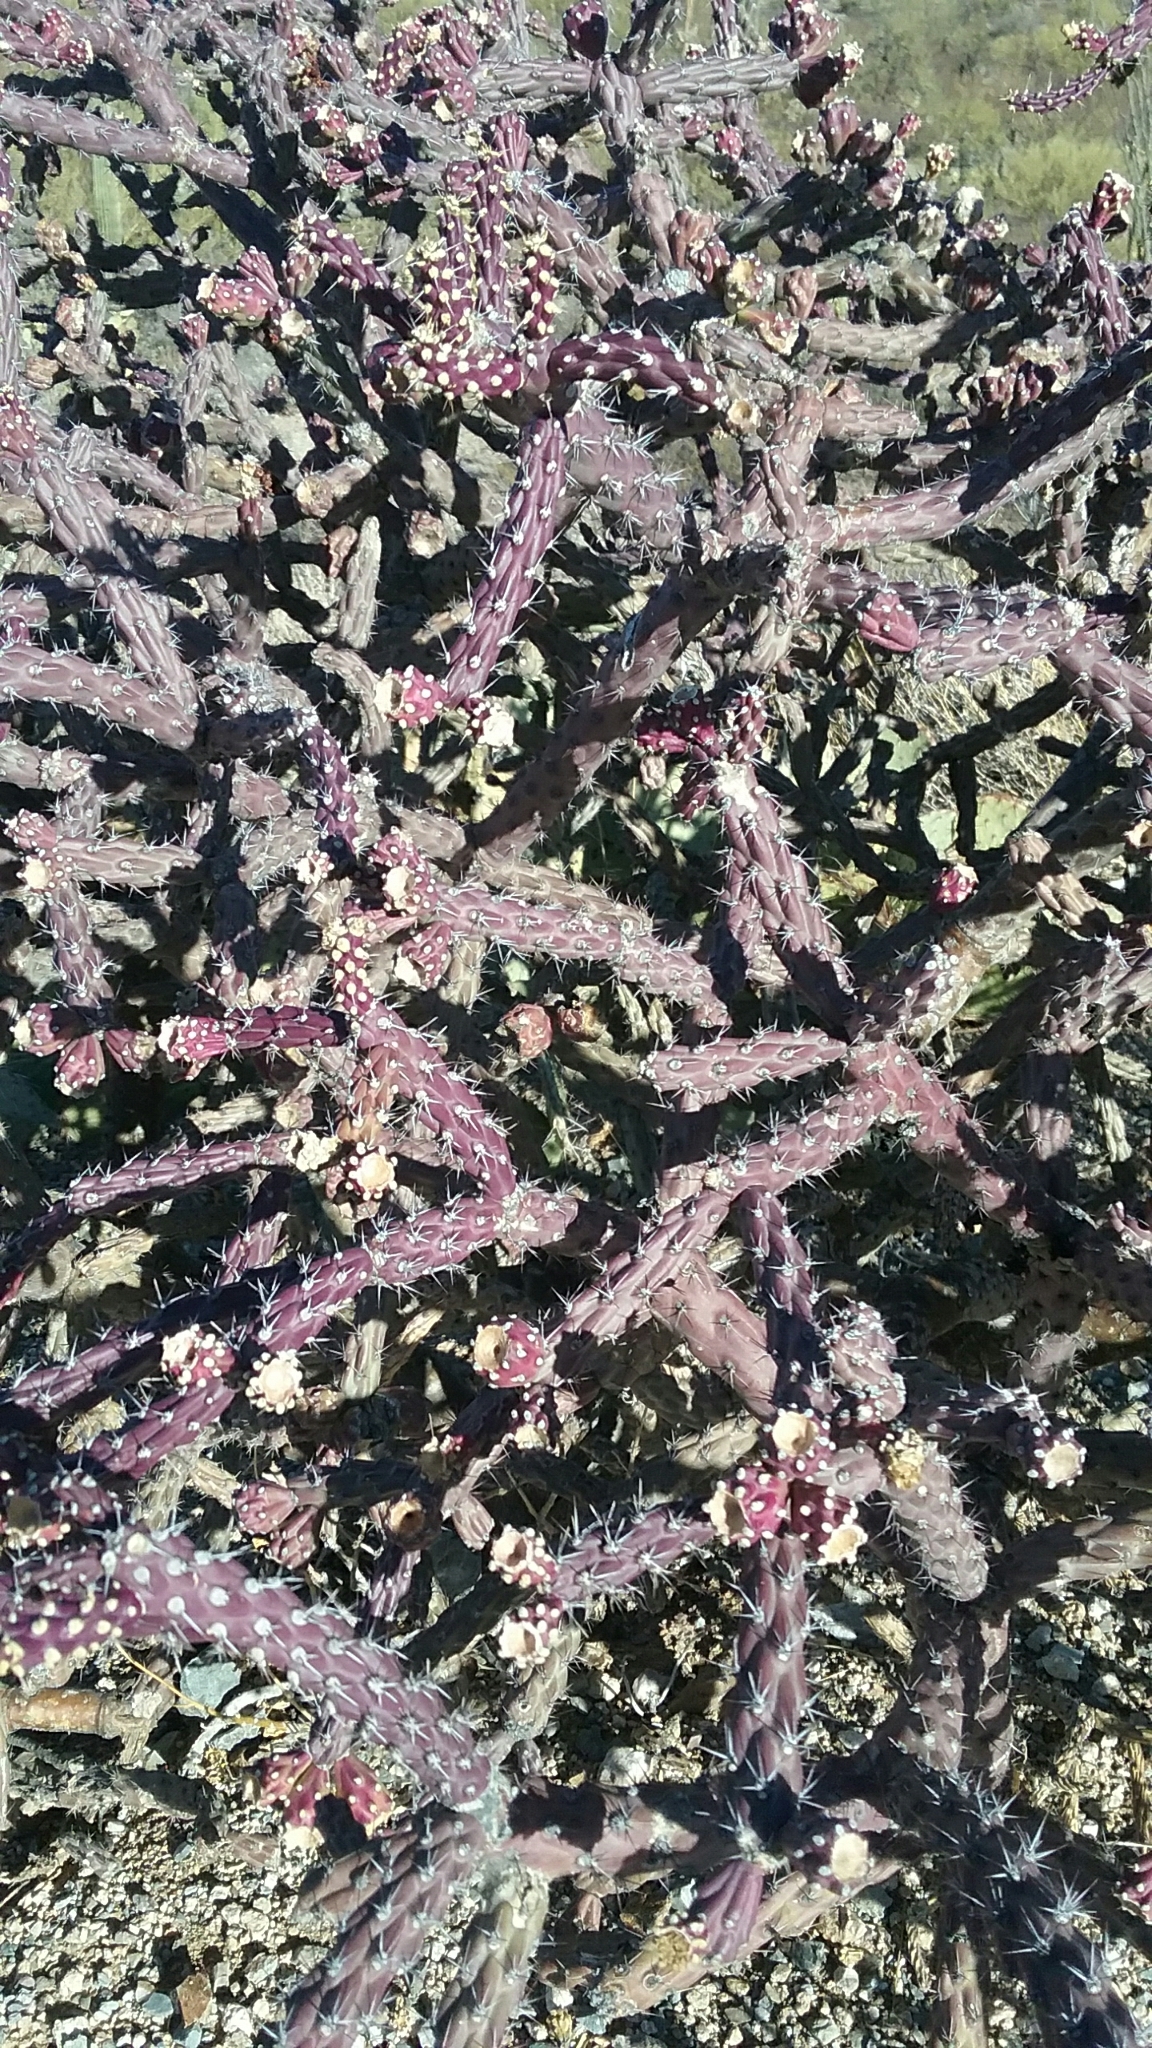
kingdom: Plantae
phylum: Tracheophyta
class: Magnoliopsida
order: Caryophyllales
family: Cactaceae
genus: Cylindropuntia
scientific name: Cylindropuntia thurberi
